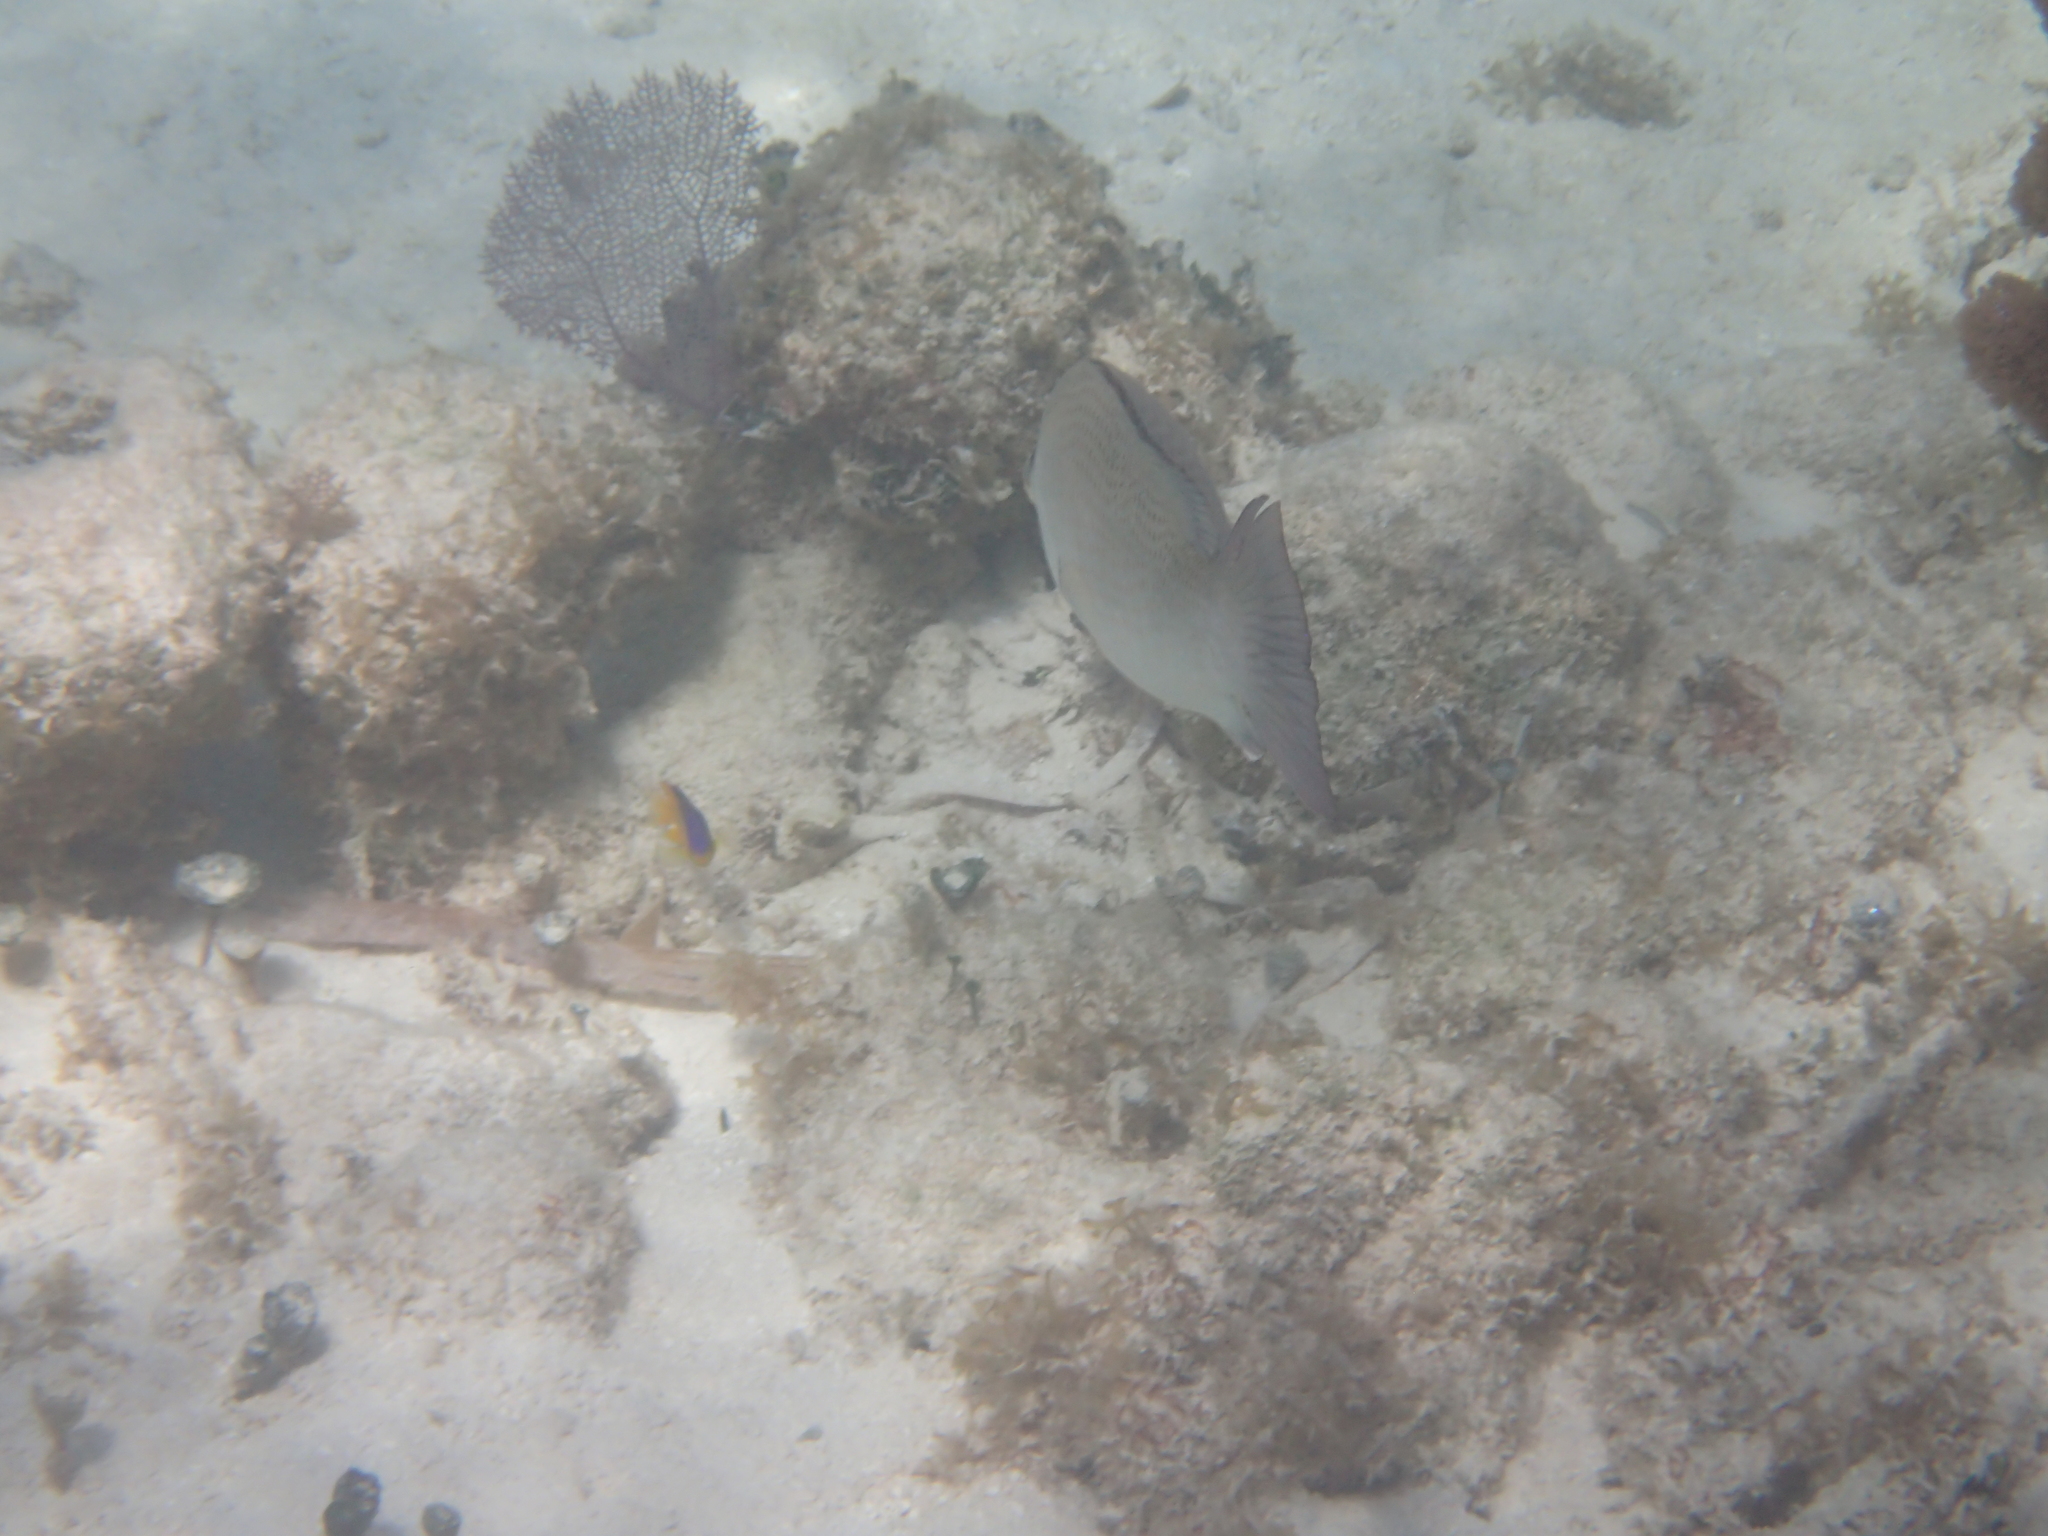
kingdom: Animalia
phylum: Chordata
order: Perciformes
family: Lutjanidae
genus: Lutjanus
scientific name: Lutjanus griseus
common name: Gray snapper
